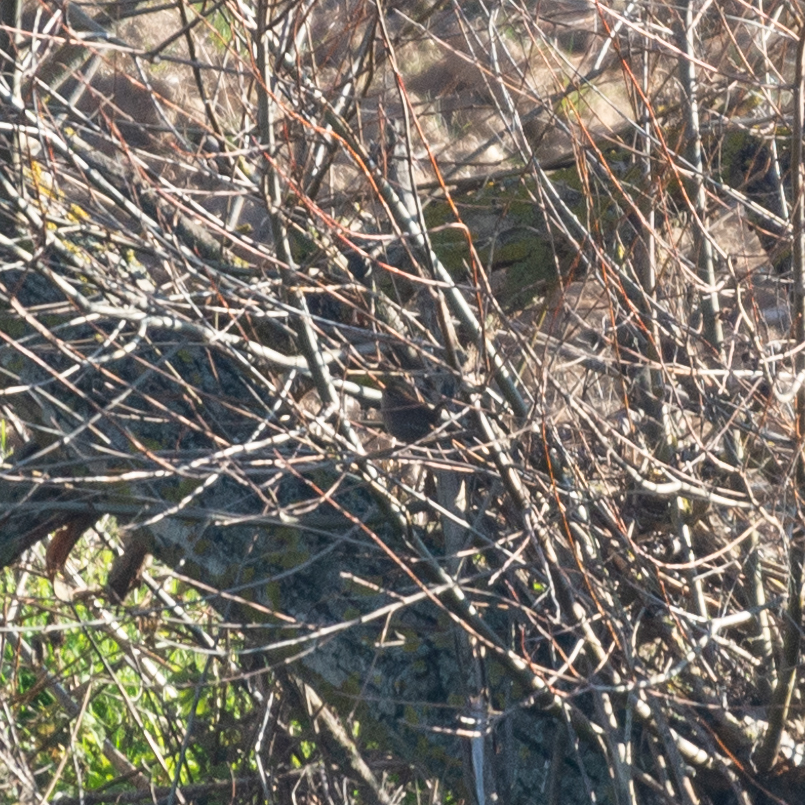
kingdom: Animalia
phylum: Chordata
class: Aves
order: Passeriformes
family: Troglodytidae
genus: Troglodytes
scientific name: Troglodytes troglodytes
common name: Eurasian wren
